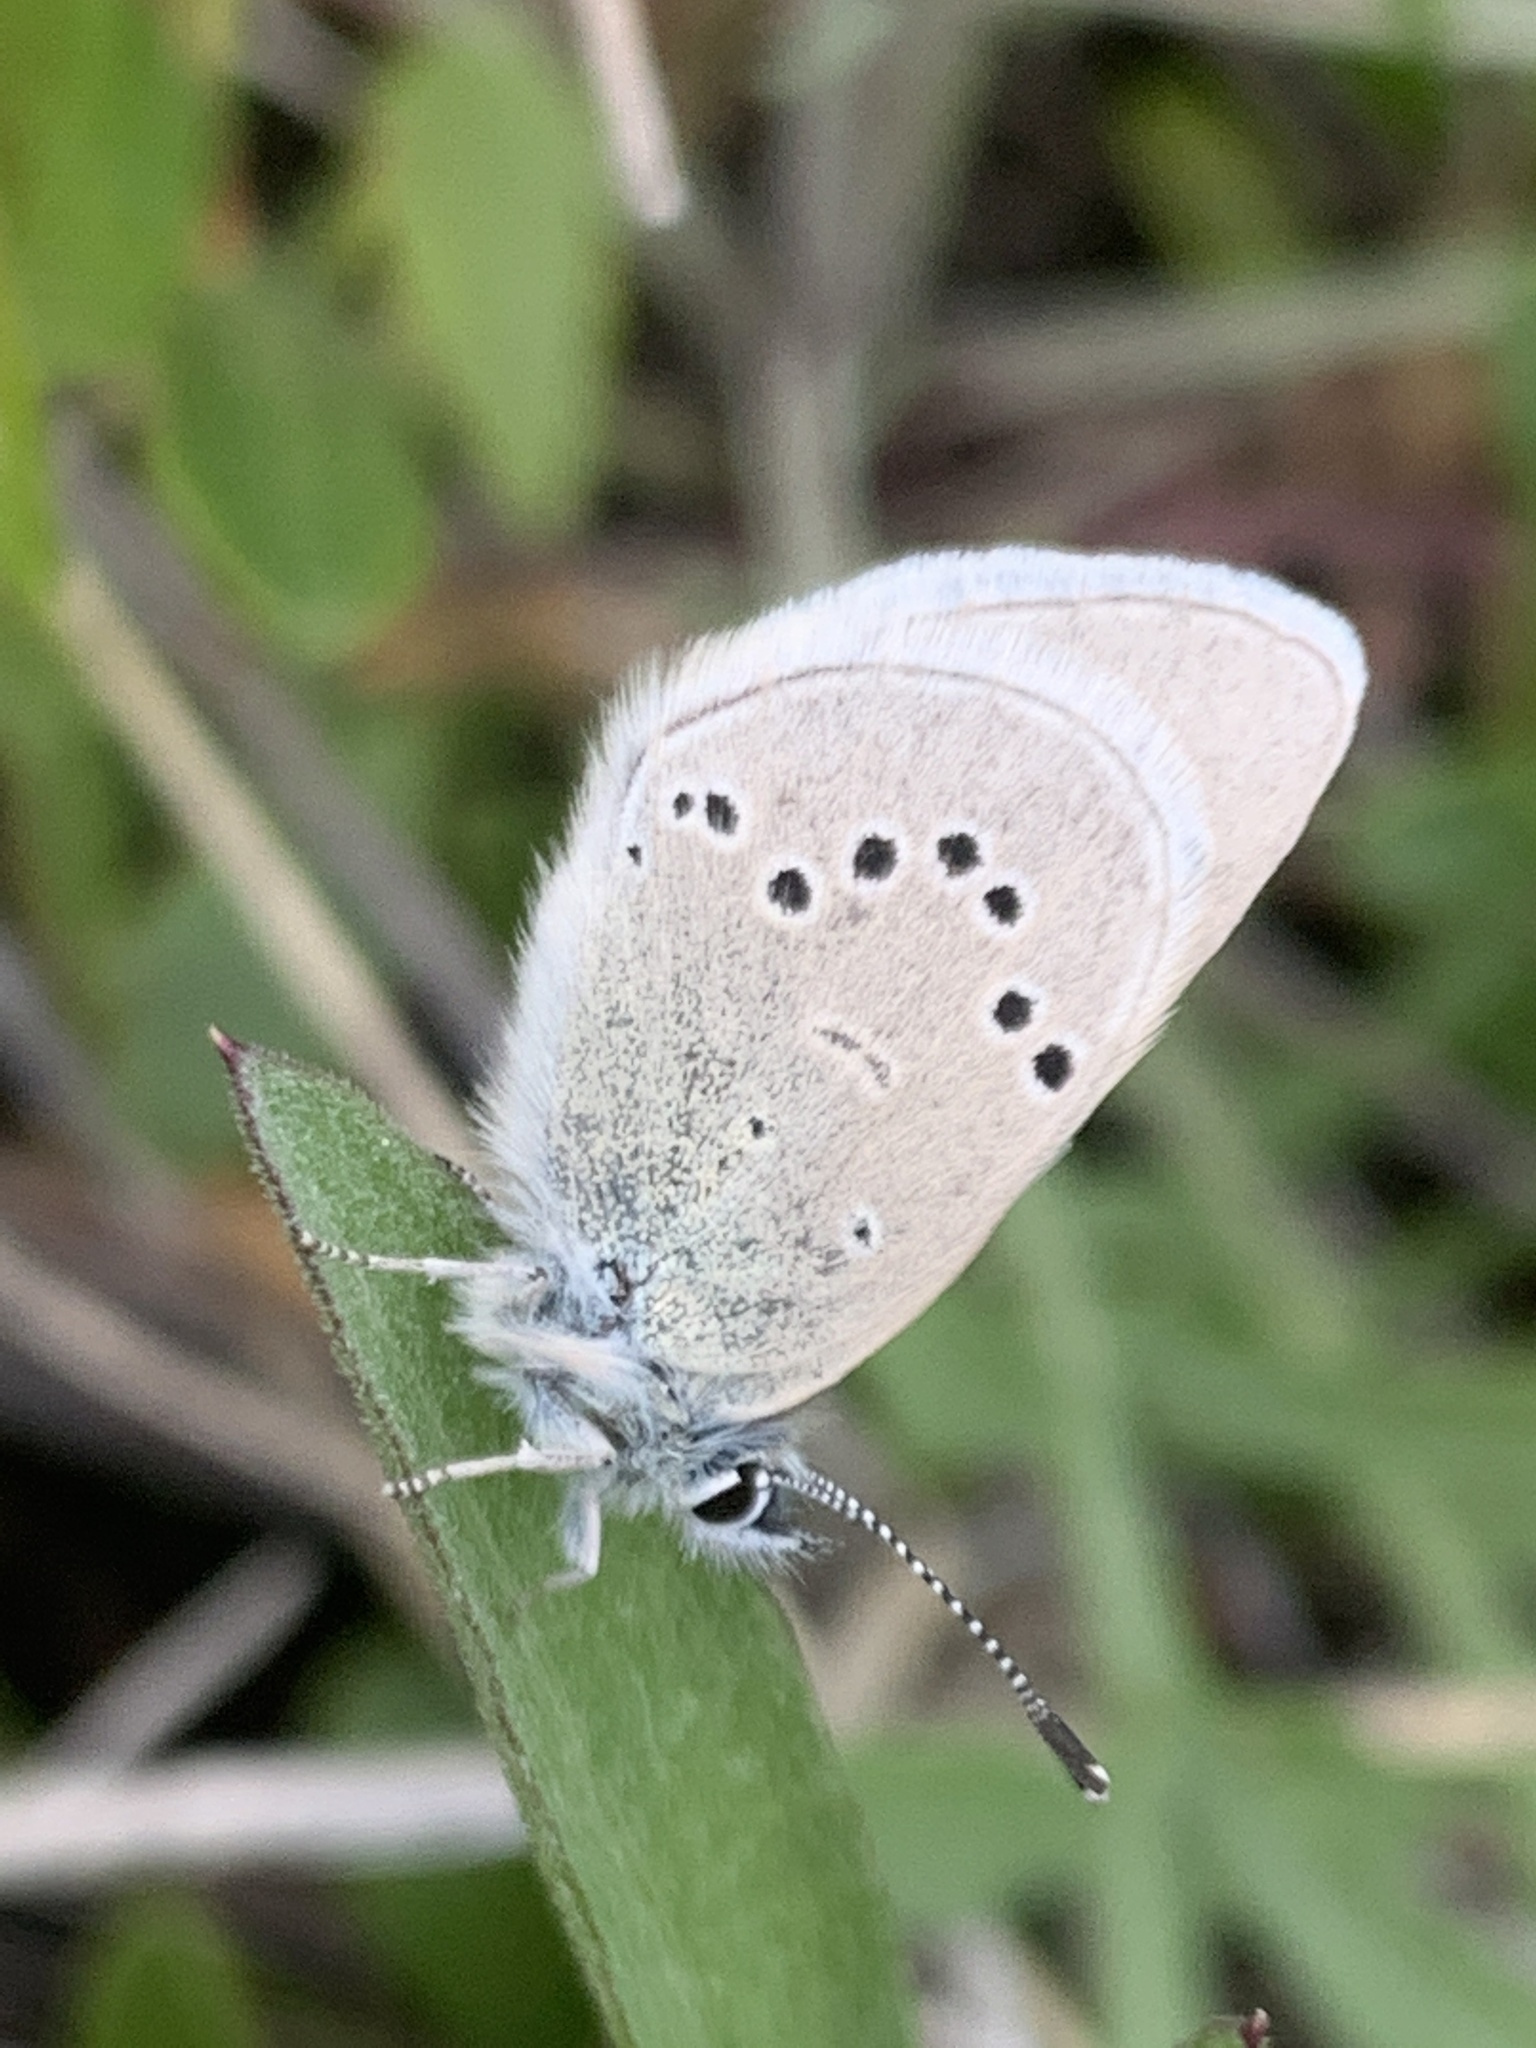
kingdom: Animalia
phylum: Arthropoda
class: Insecta
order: Lepidoptera
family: Lycaenidae
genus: Icaricia
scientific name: Icaricia icarioides
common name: Boisduval's blue
